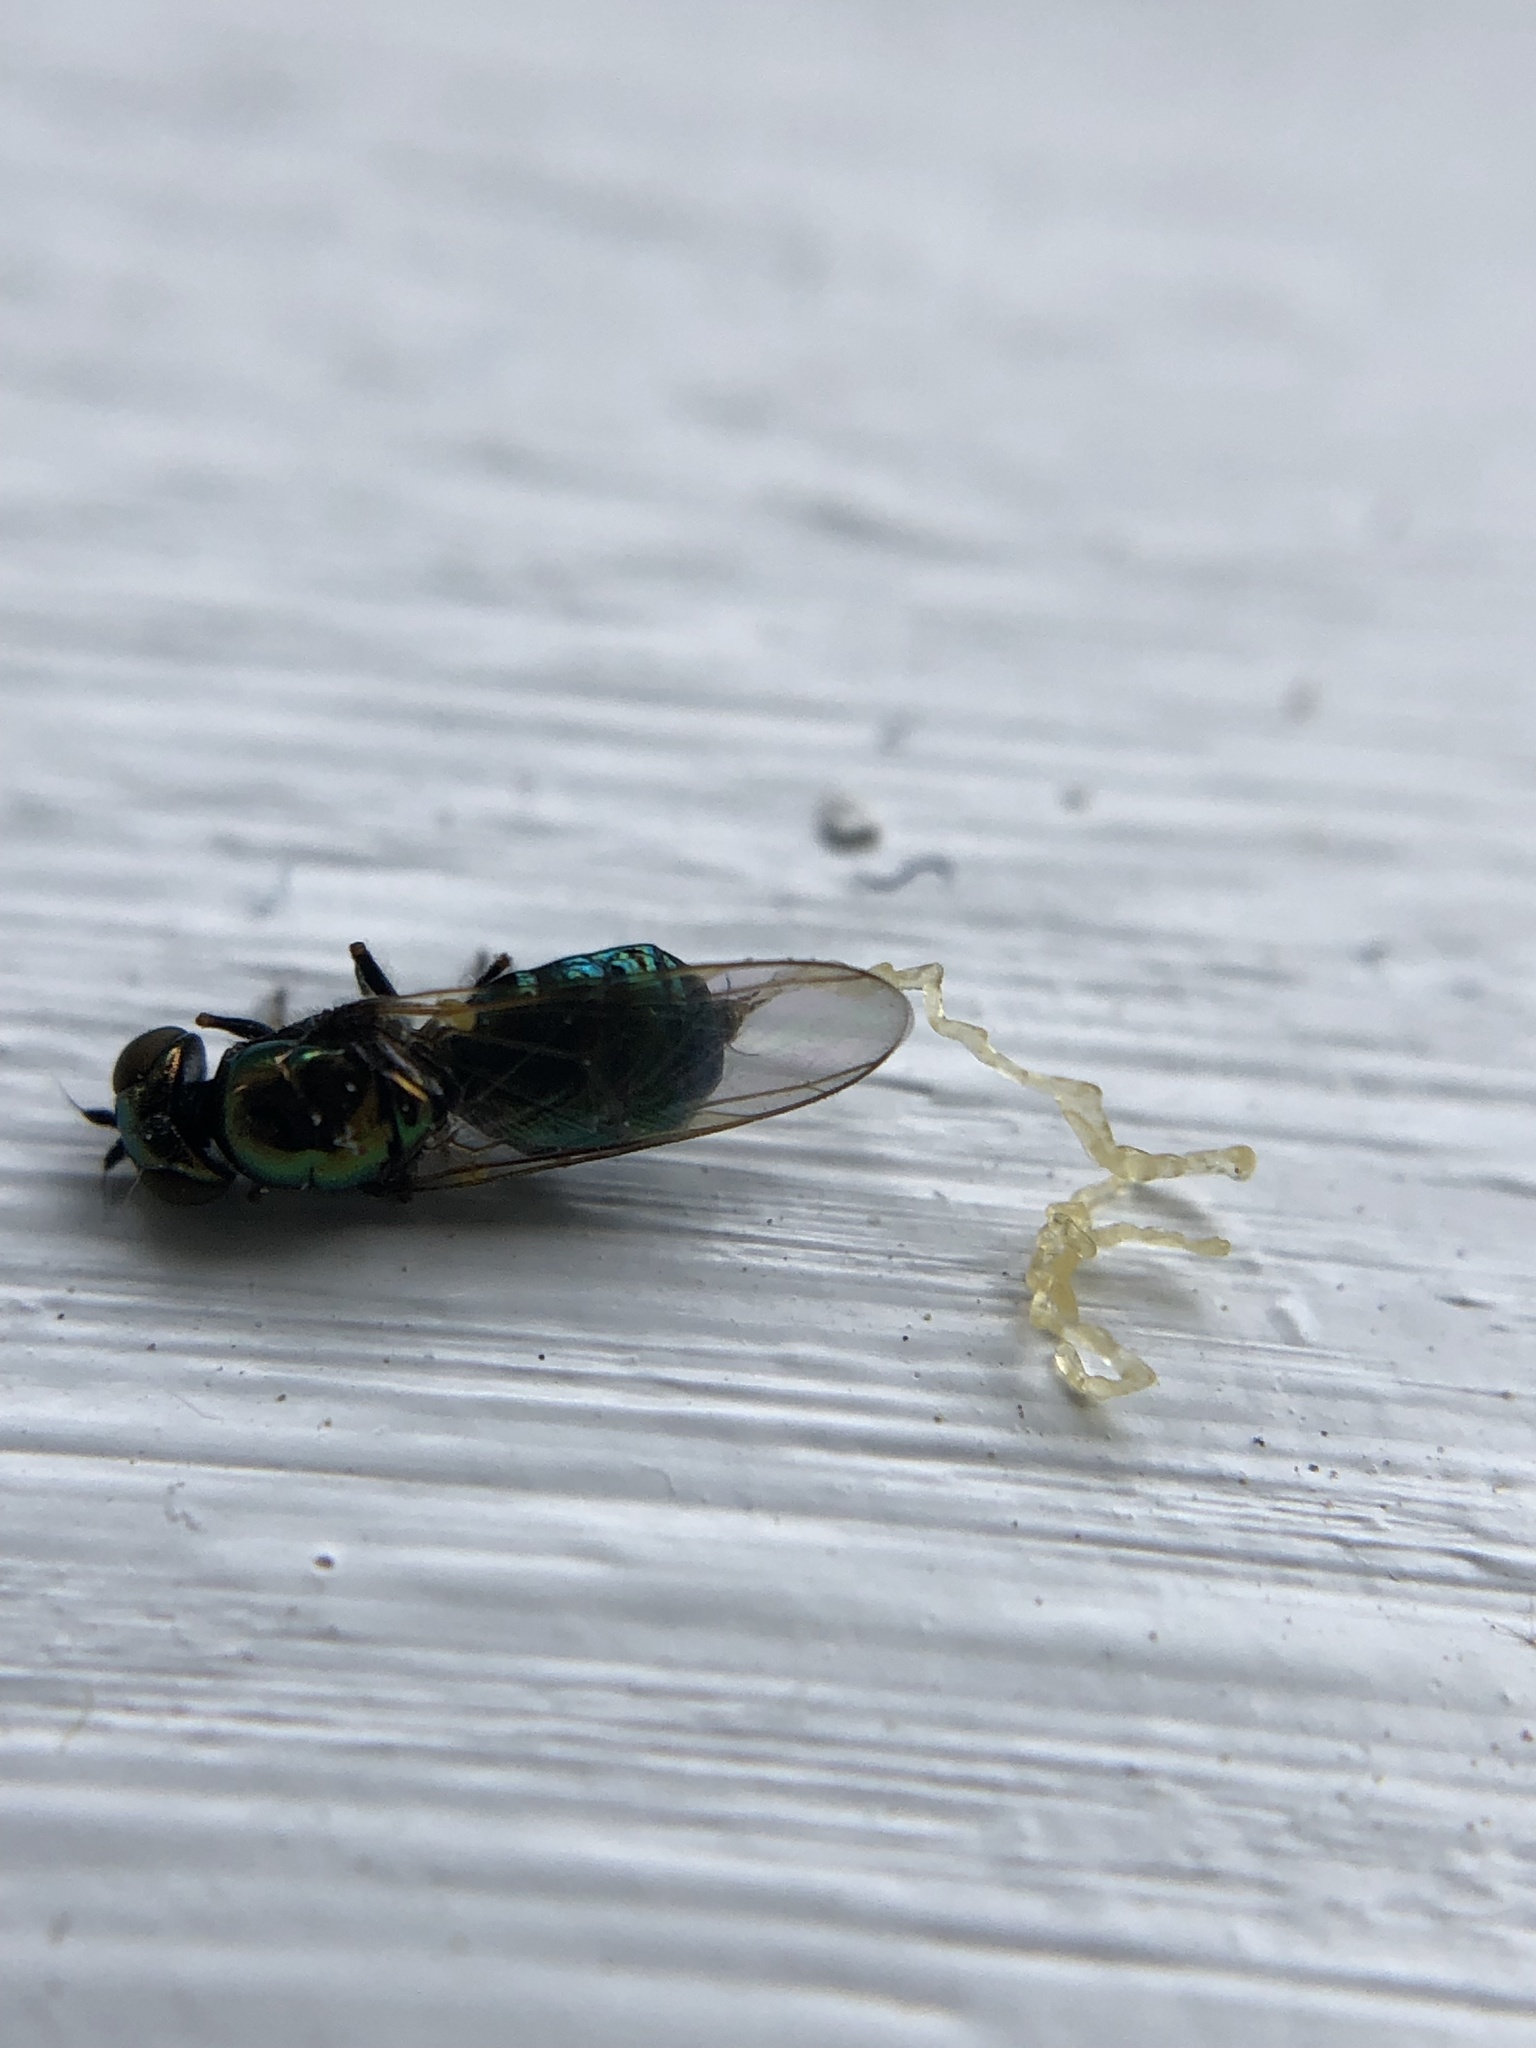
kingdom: Animalia
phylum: Arthropoda
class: Insecta
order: Diptera
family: Stratiomyidae
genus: Microchrysa
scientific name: Microchrysa polita
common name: Black-horned gem
